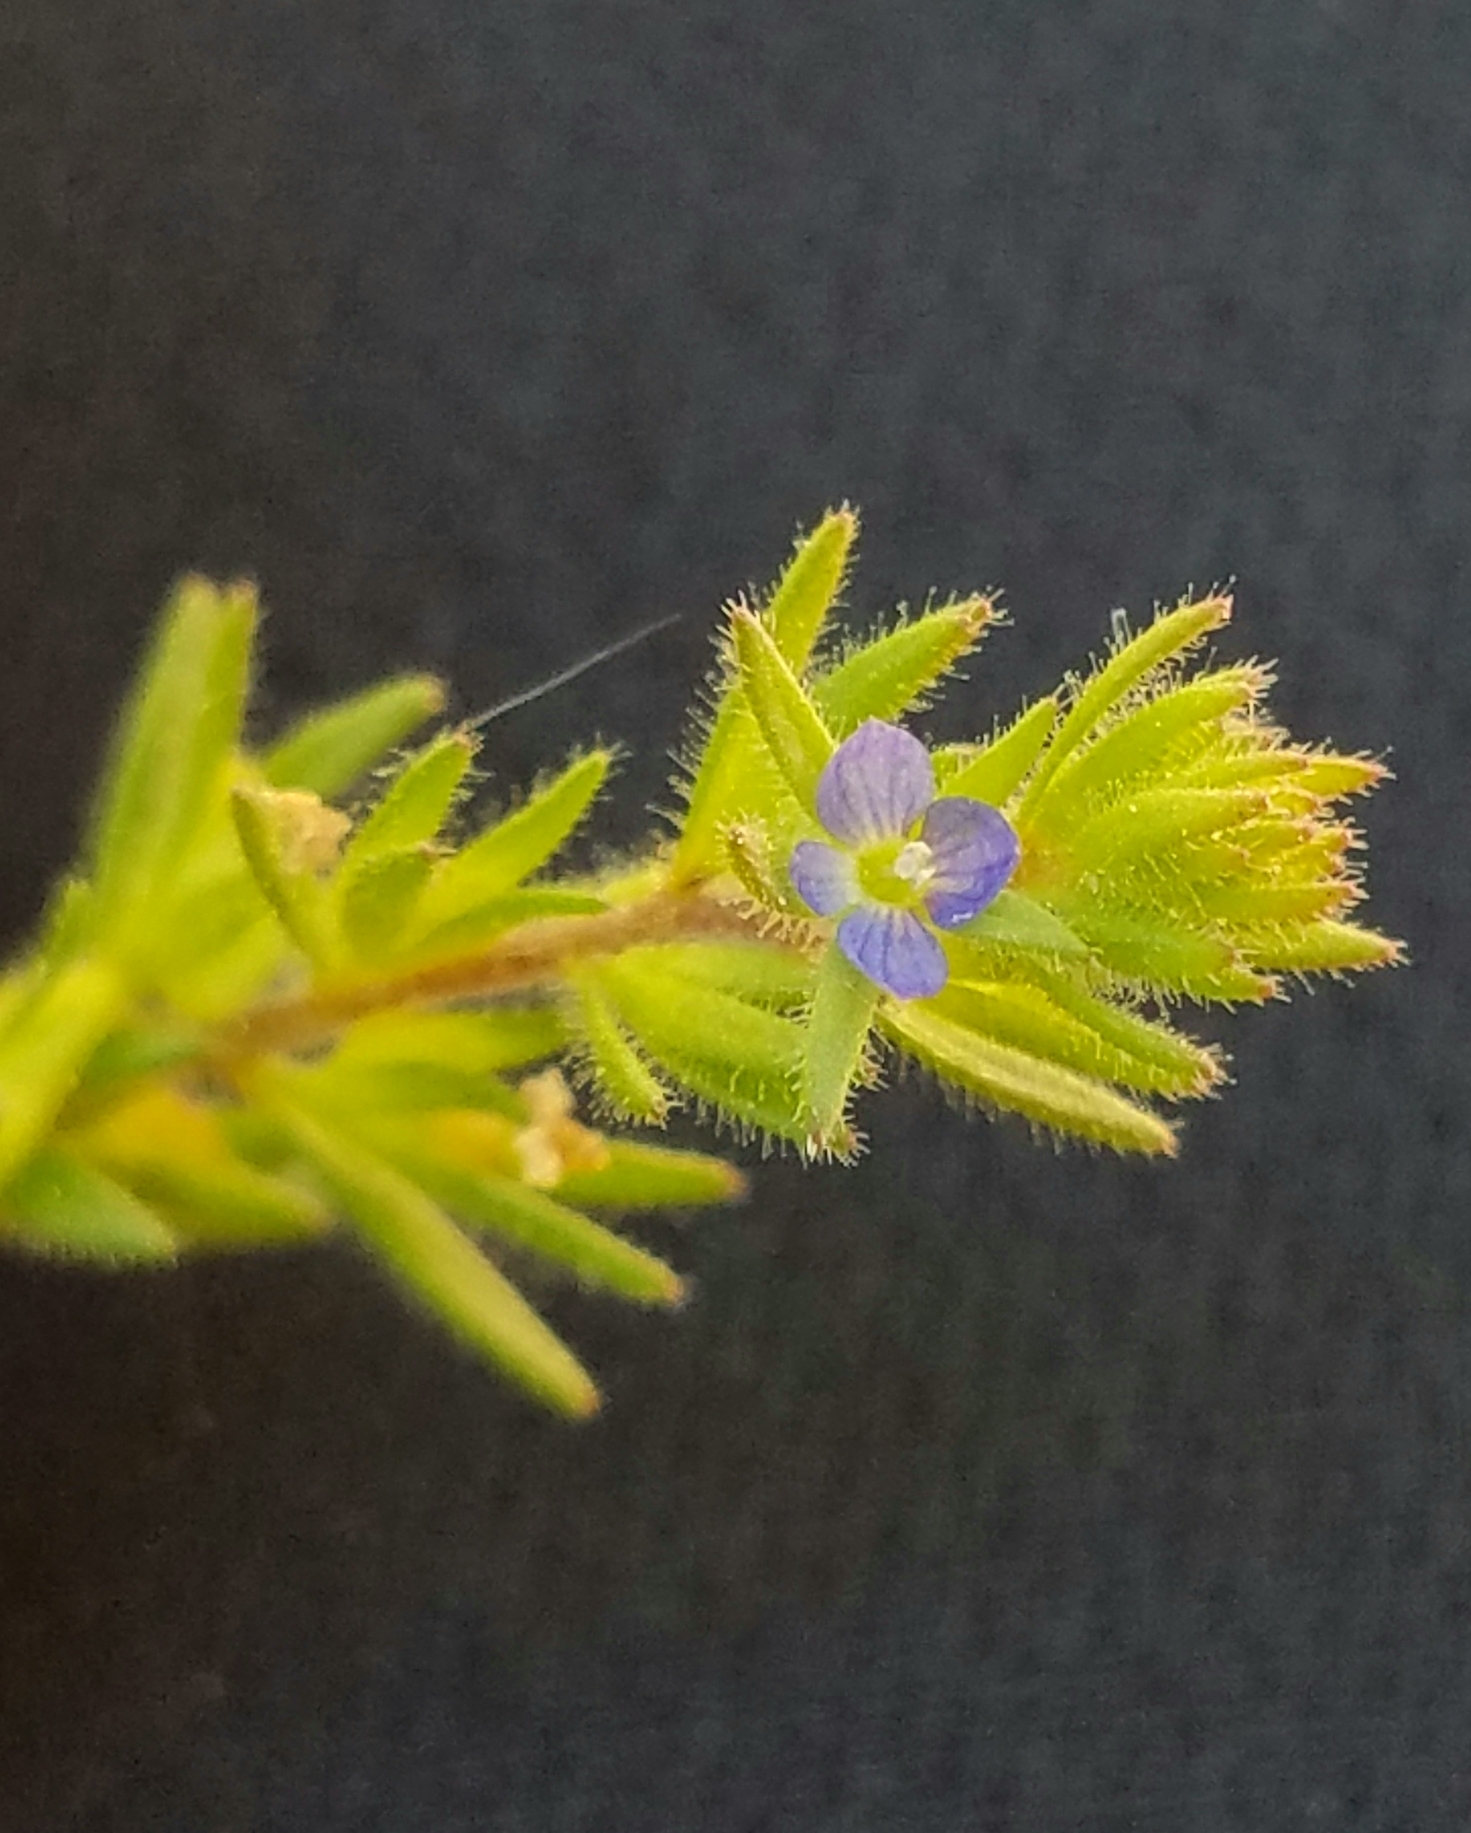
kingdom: Plantae
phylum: Tracheophyta
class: Magnoliopsida
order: Lamiales
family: Plantaginaceae
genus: Veronica
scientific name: Veronica arvensis
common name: Corn speedwell
